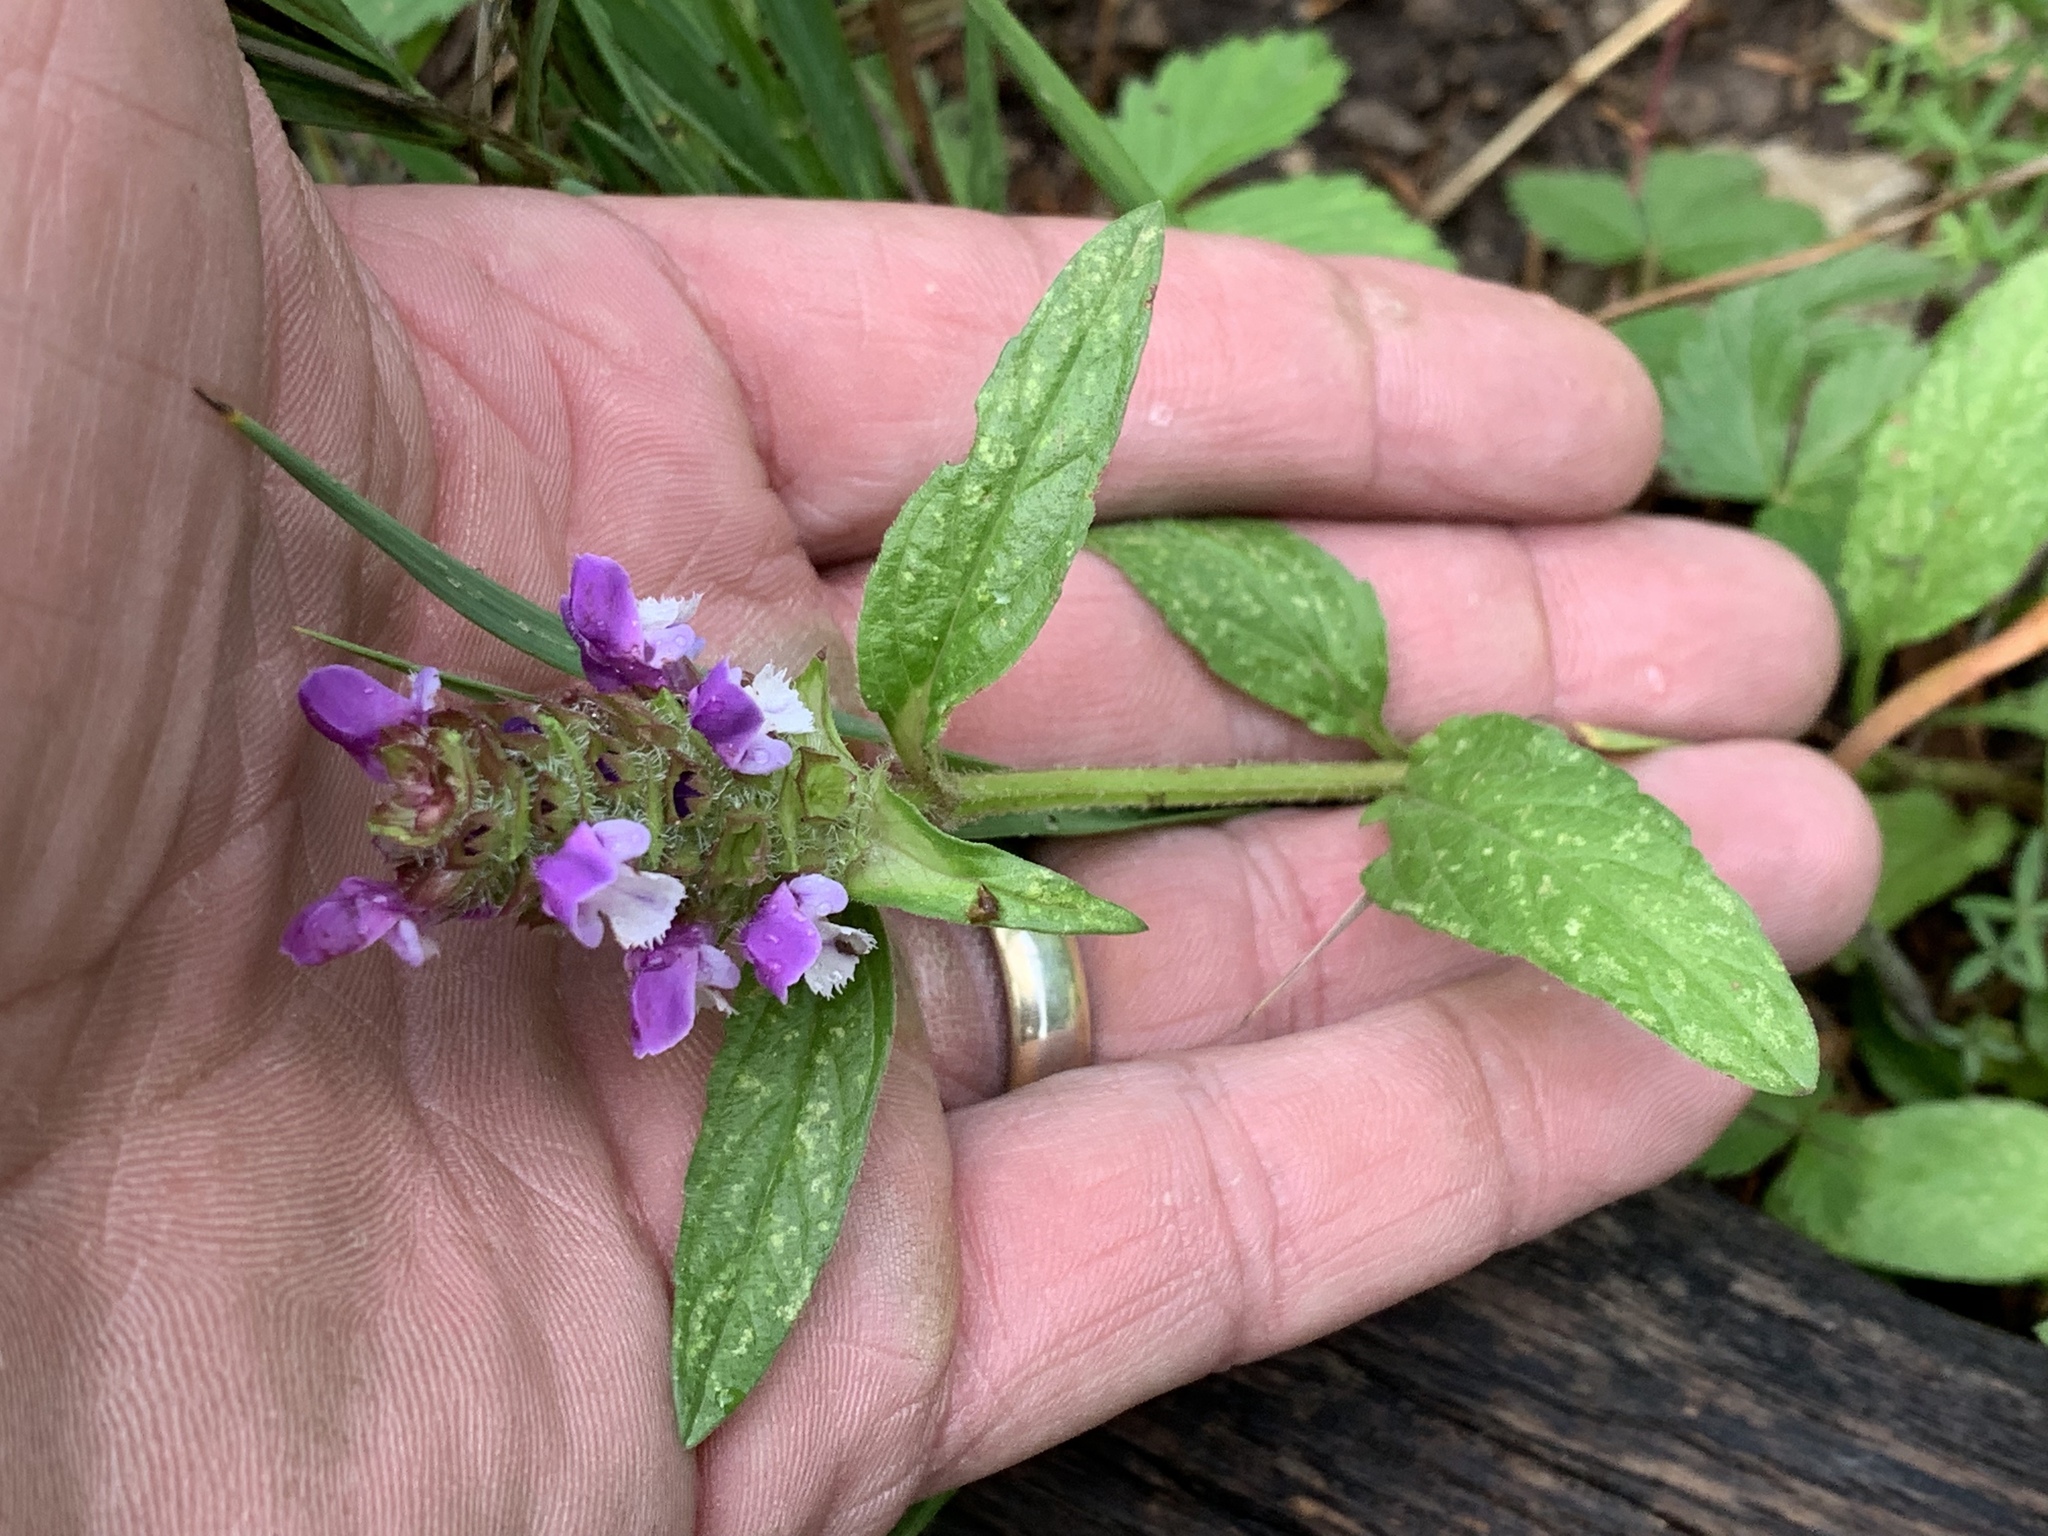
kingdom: Plantae
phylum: Tracheophyta
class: Magnoliopsida
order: Lamiales
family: Lamiaceae
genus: Prunella
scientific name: Prunella vulgaris
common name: Heal-all
